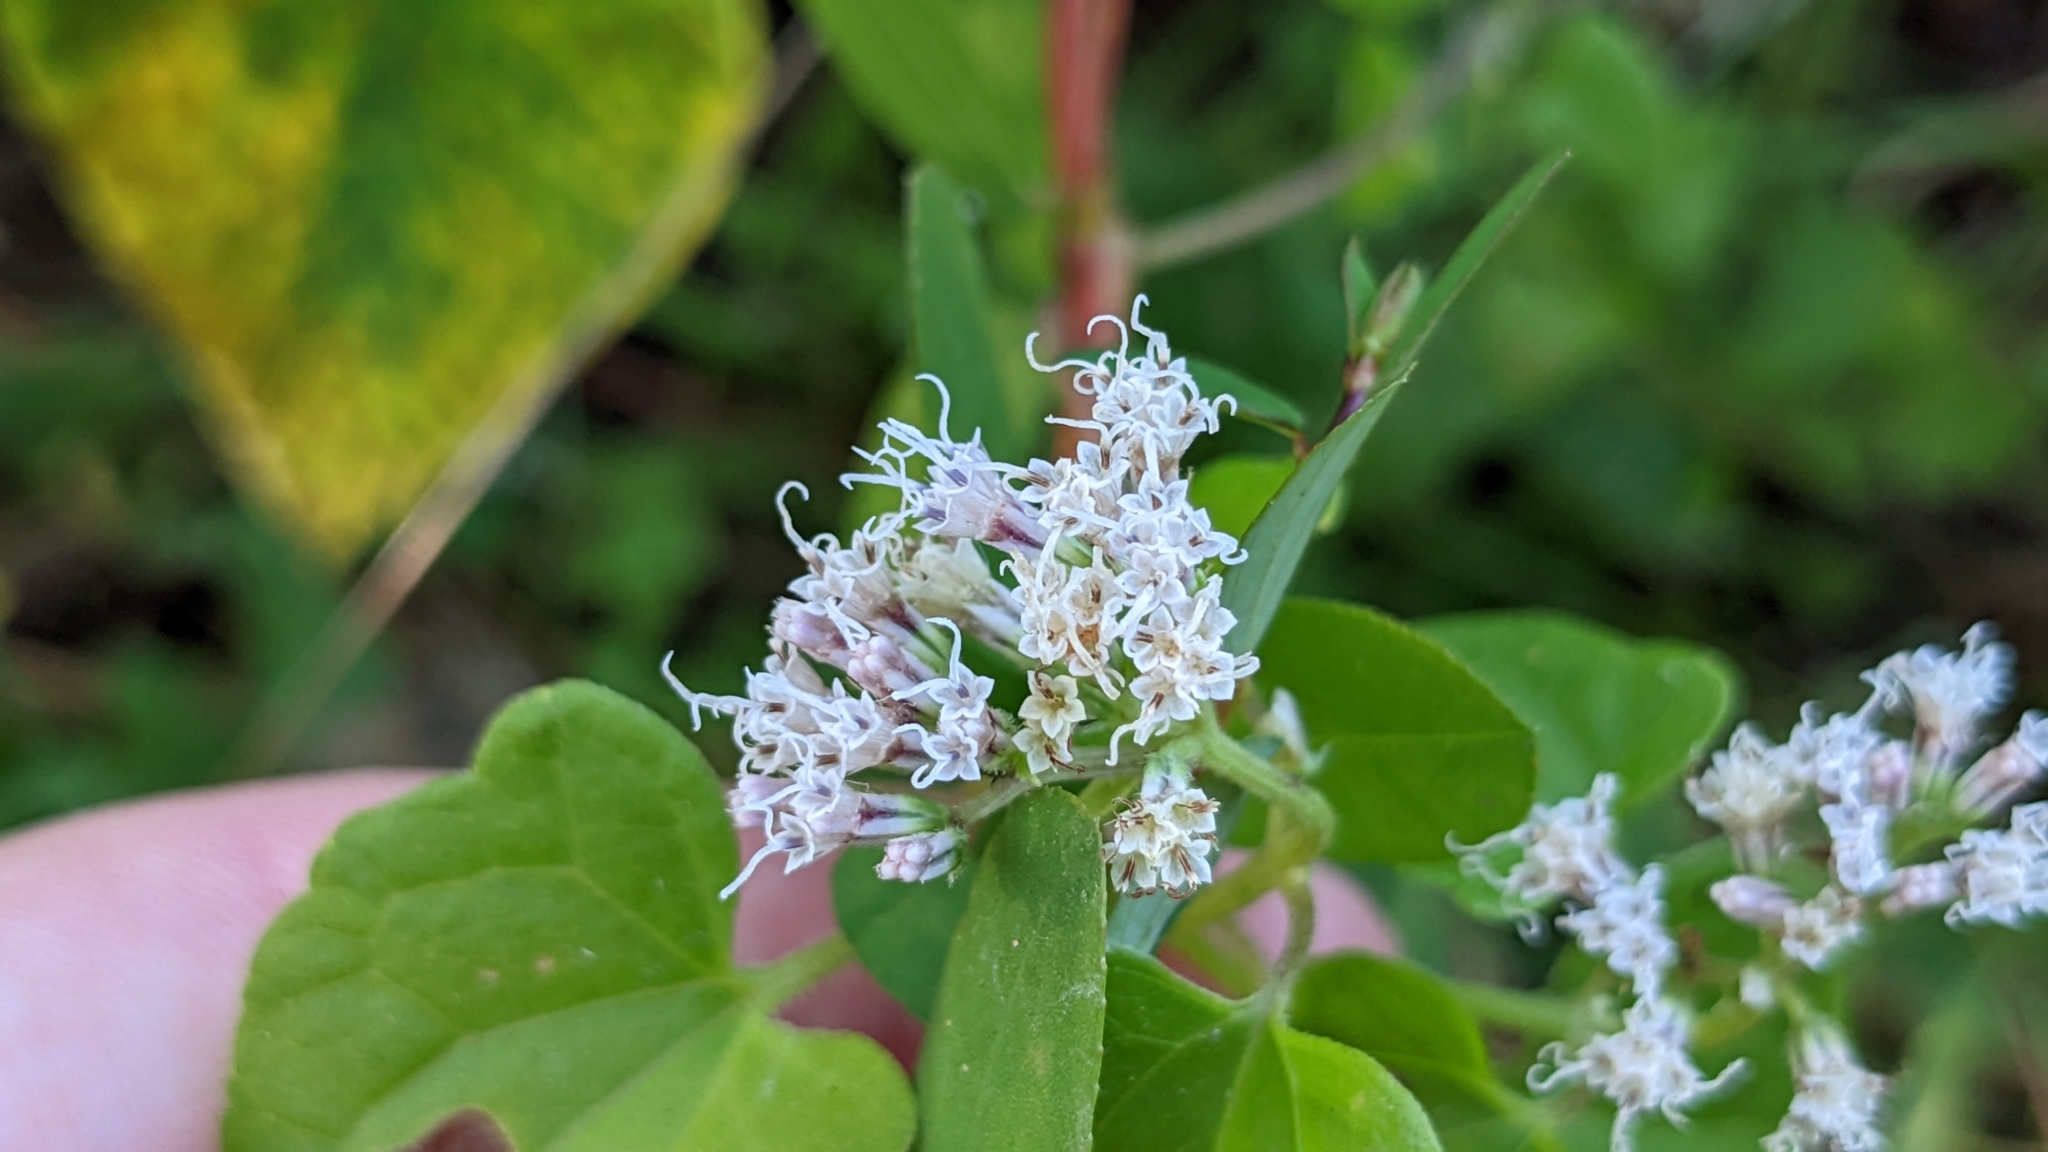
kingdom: Plantae
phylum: Tracheophyta
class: Magnoliopsida
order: Asterales
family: Asteraceae
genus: Mikania
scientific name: Mikania scandens
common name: Climbing hempvine
